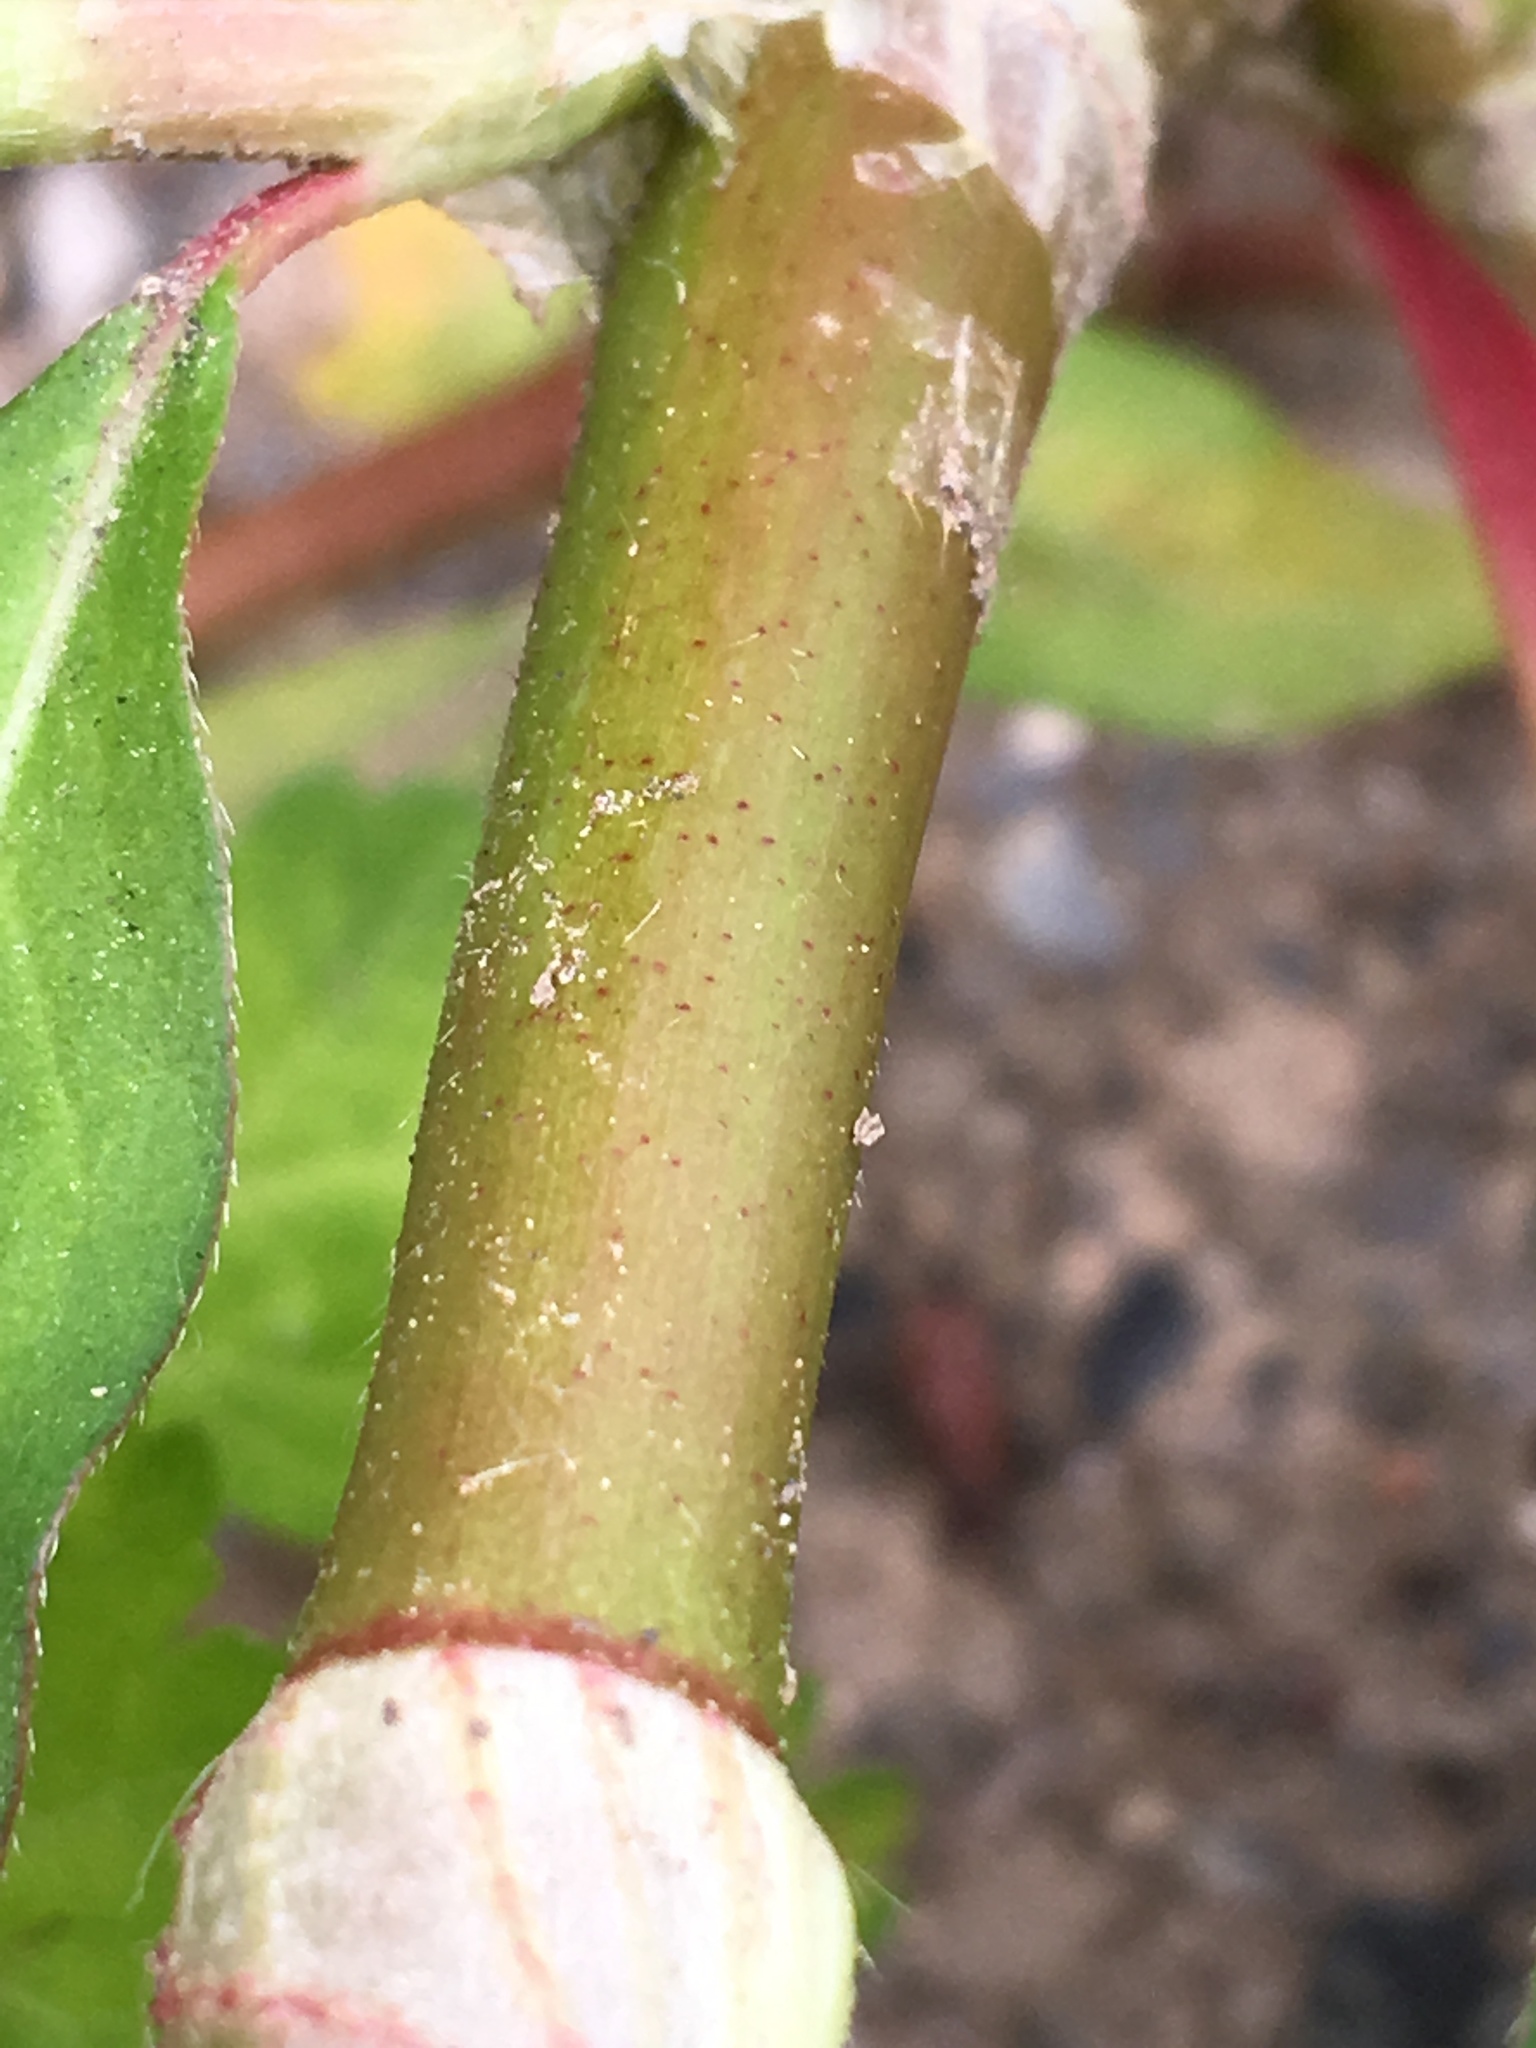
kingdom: Plantae
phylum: Tracheophyta
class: Magnoliopsida
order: Caryophyllales
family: Polygonaceae
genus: Persicaria
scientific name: Persicaria extremiorientalis
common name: Far-eastern smartweed
